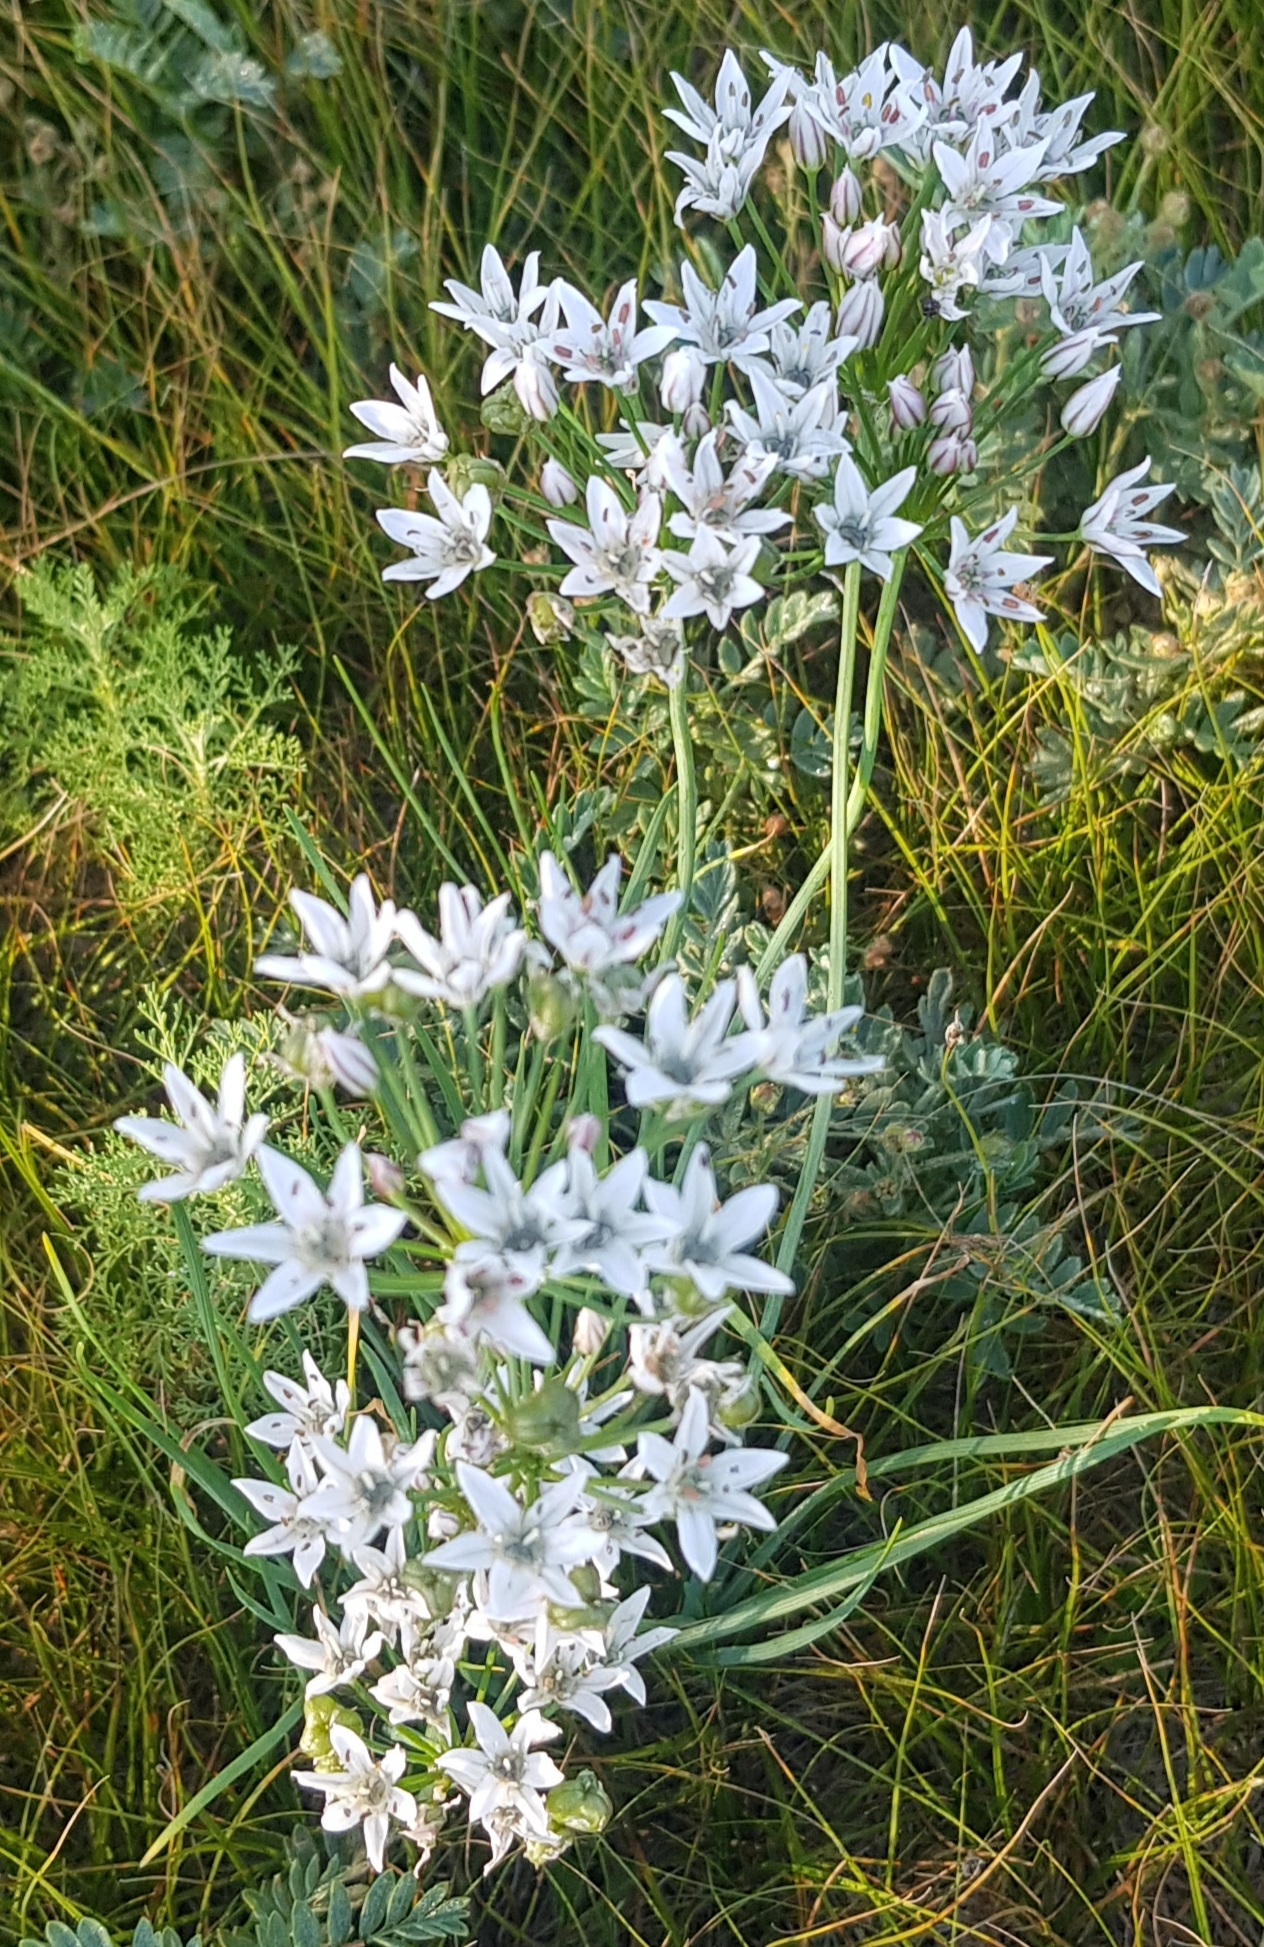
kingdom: Plantae
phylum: Tracheophyta
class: Liliopsida
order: Asparagales
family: Amaryllidaceae
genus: Allium
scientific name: Allium ramosum
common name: Fragrant garlic
